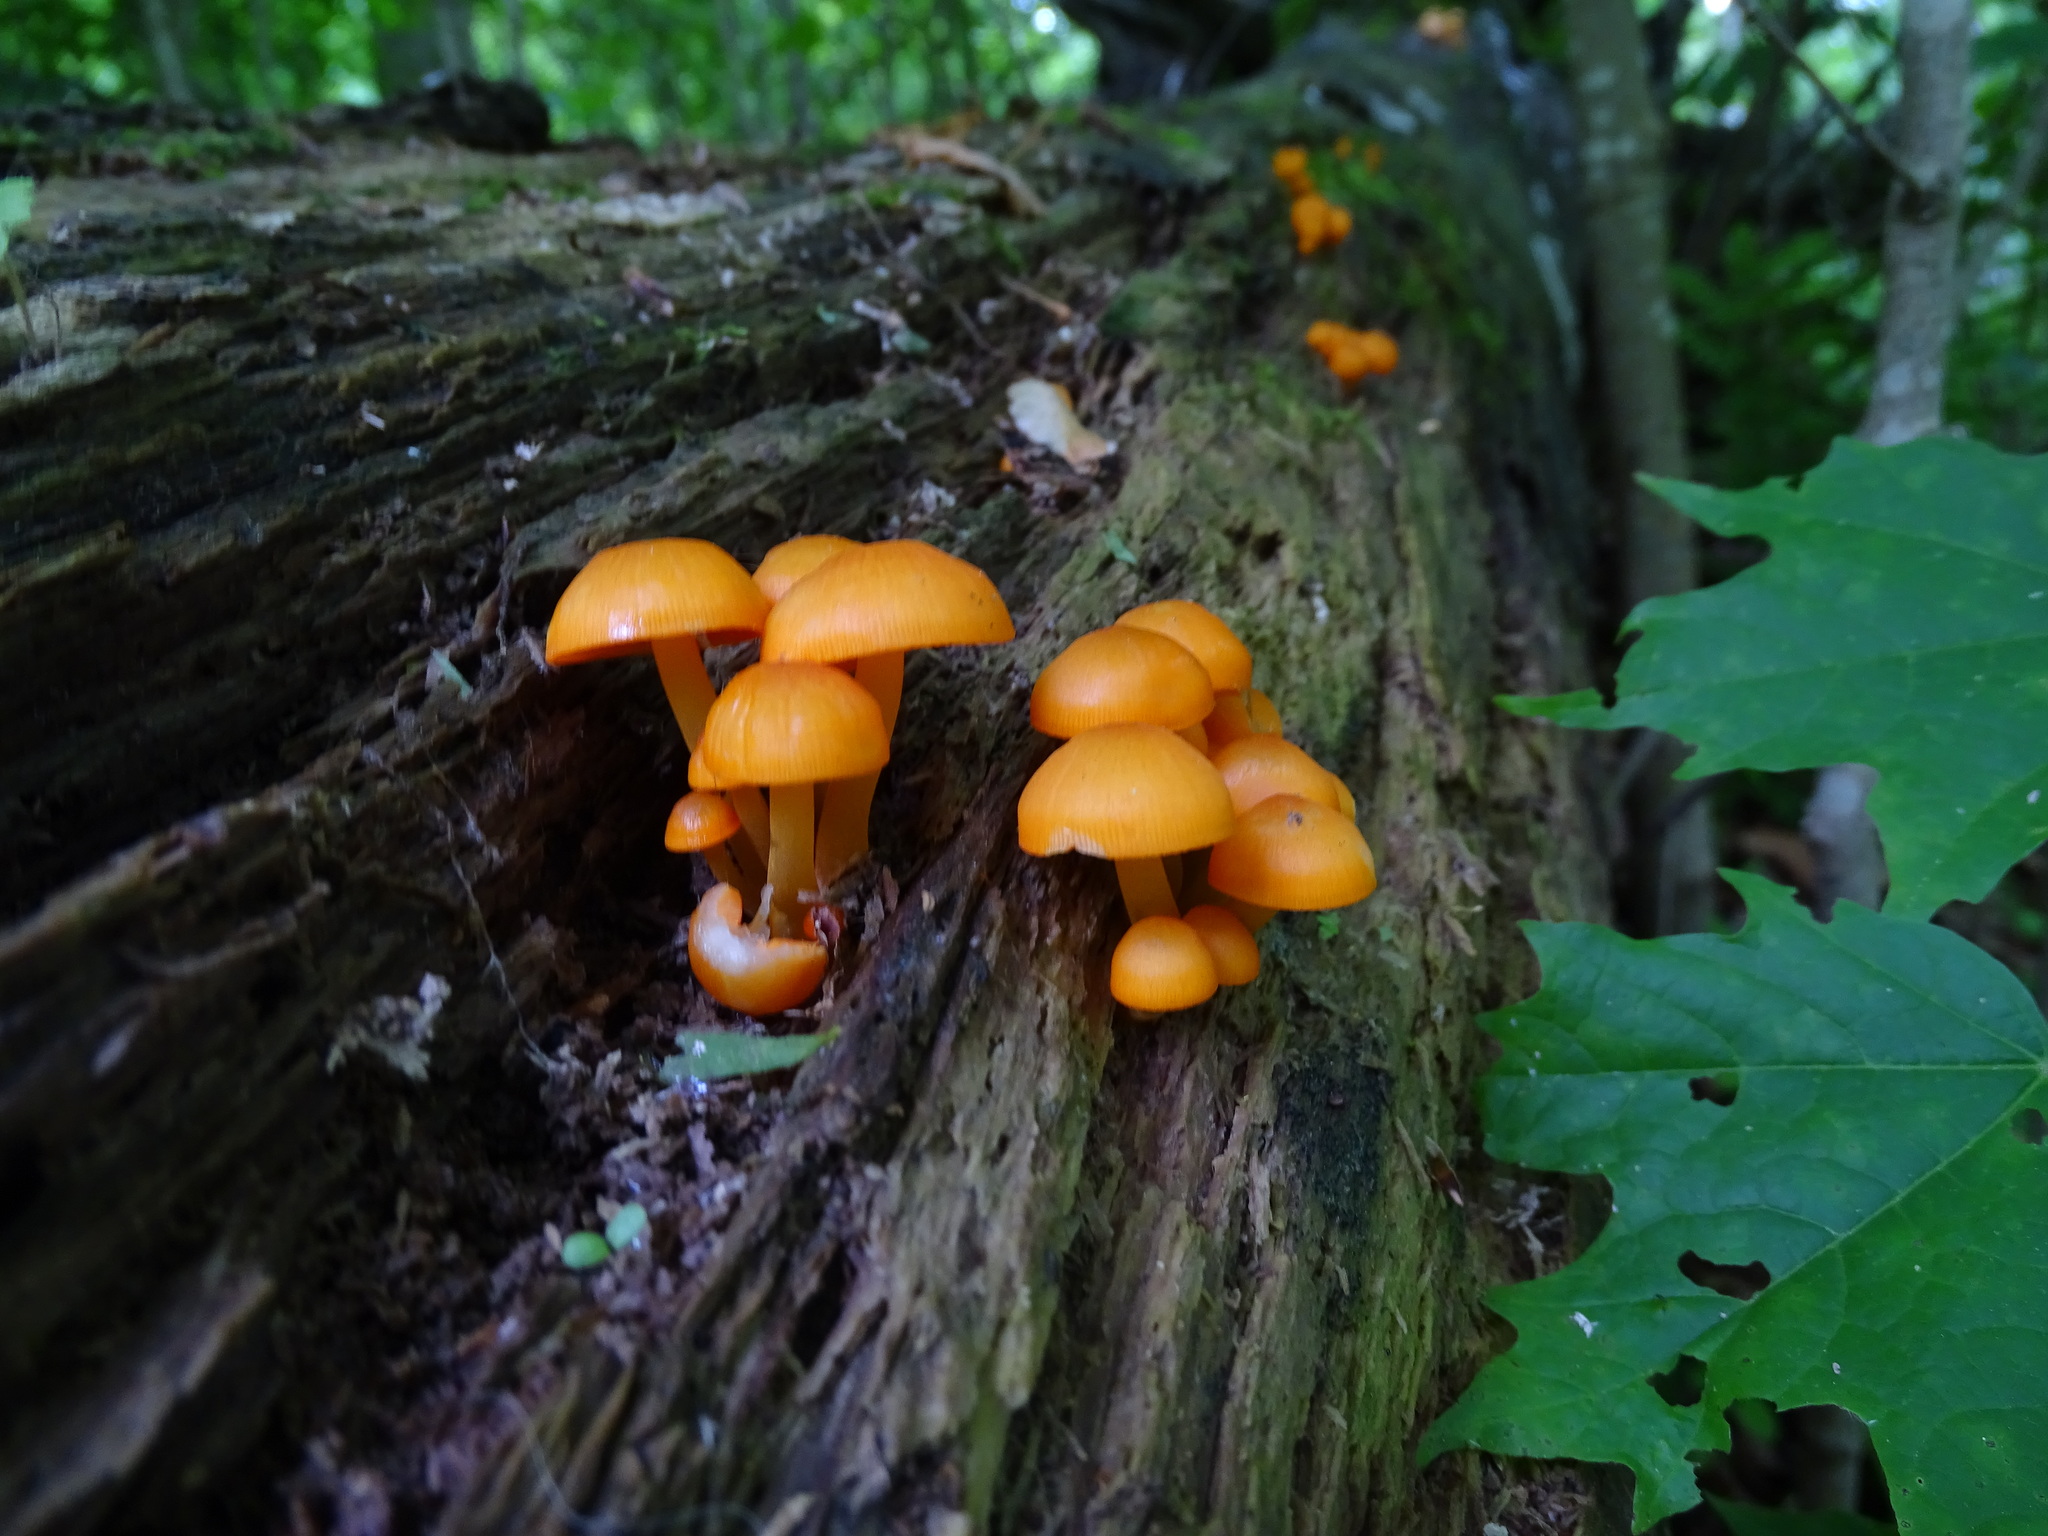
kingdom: Fungi
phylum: Basidiomycota
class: Agaricomycetes
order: Agaricales
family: Mycenaceae
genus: Mycena
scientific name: Mycena leaiana
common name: Orange mycena
